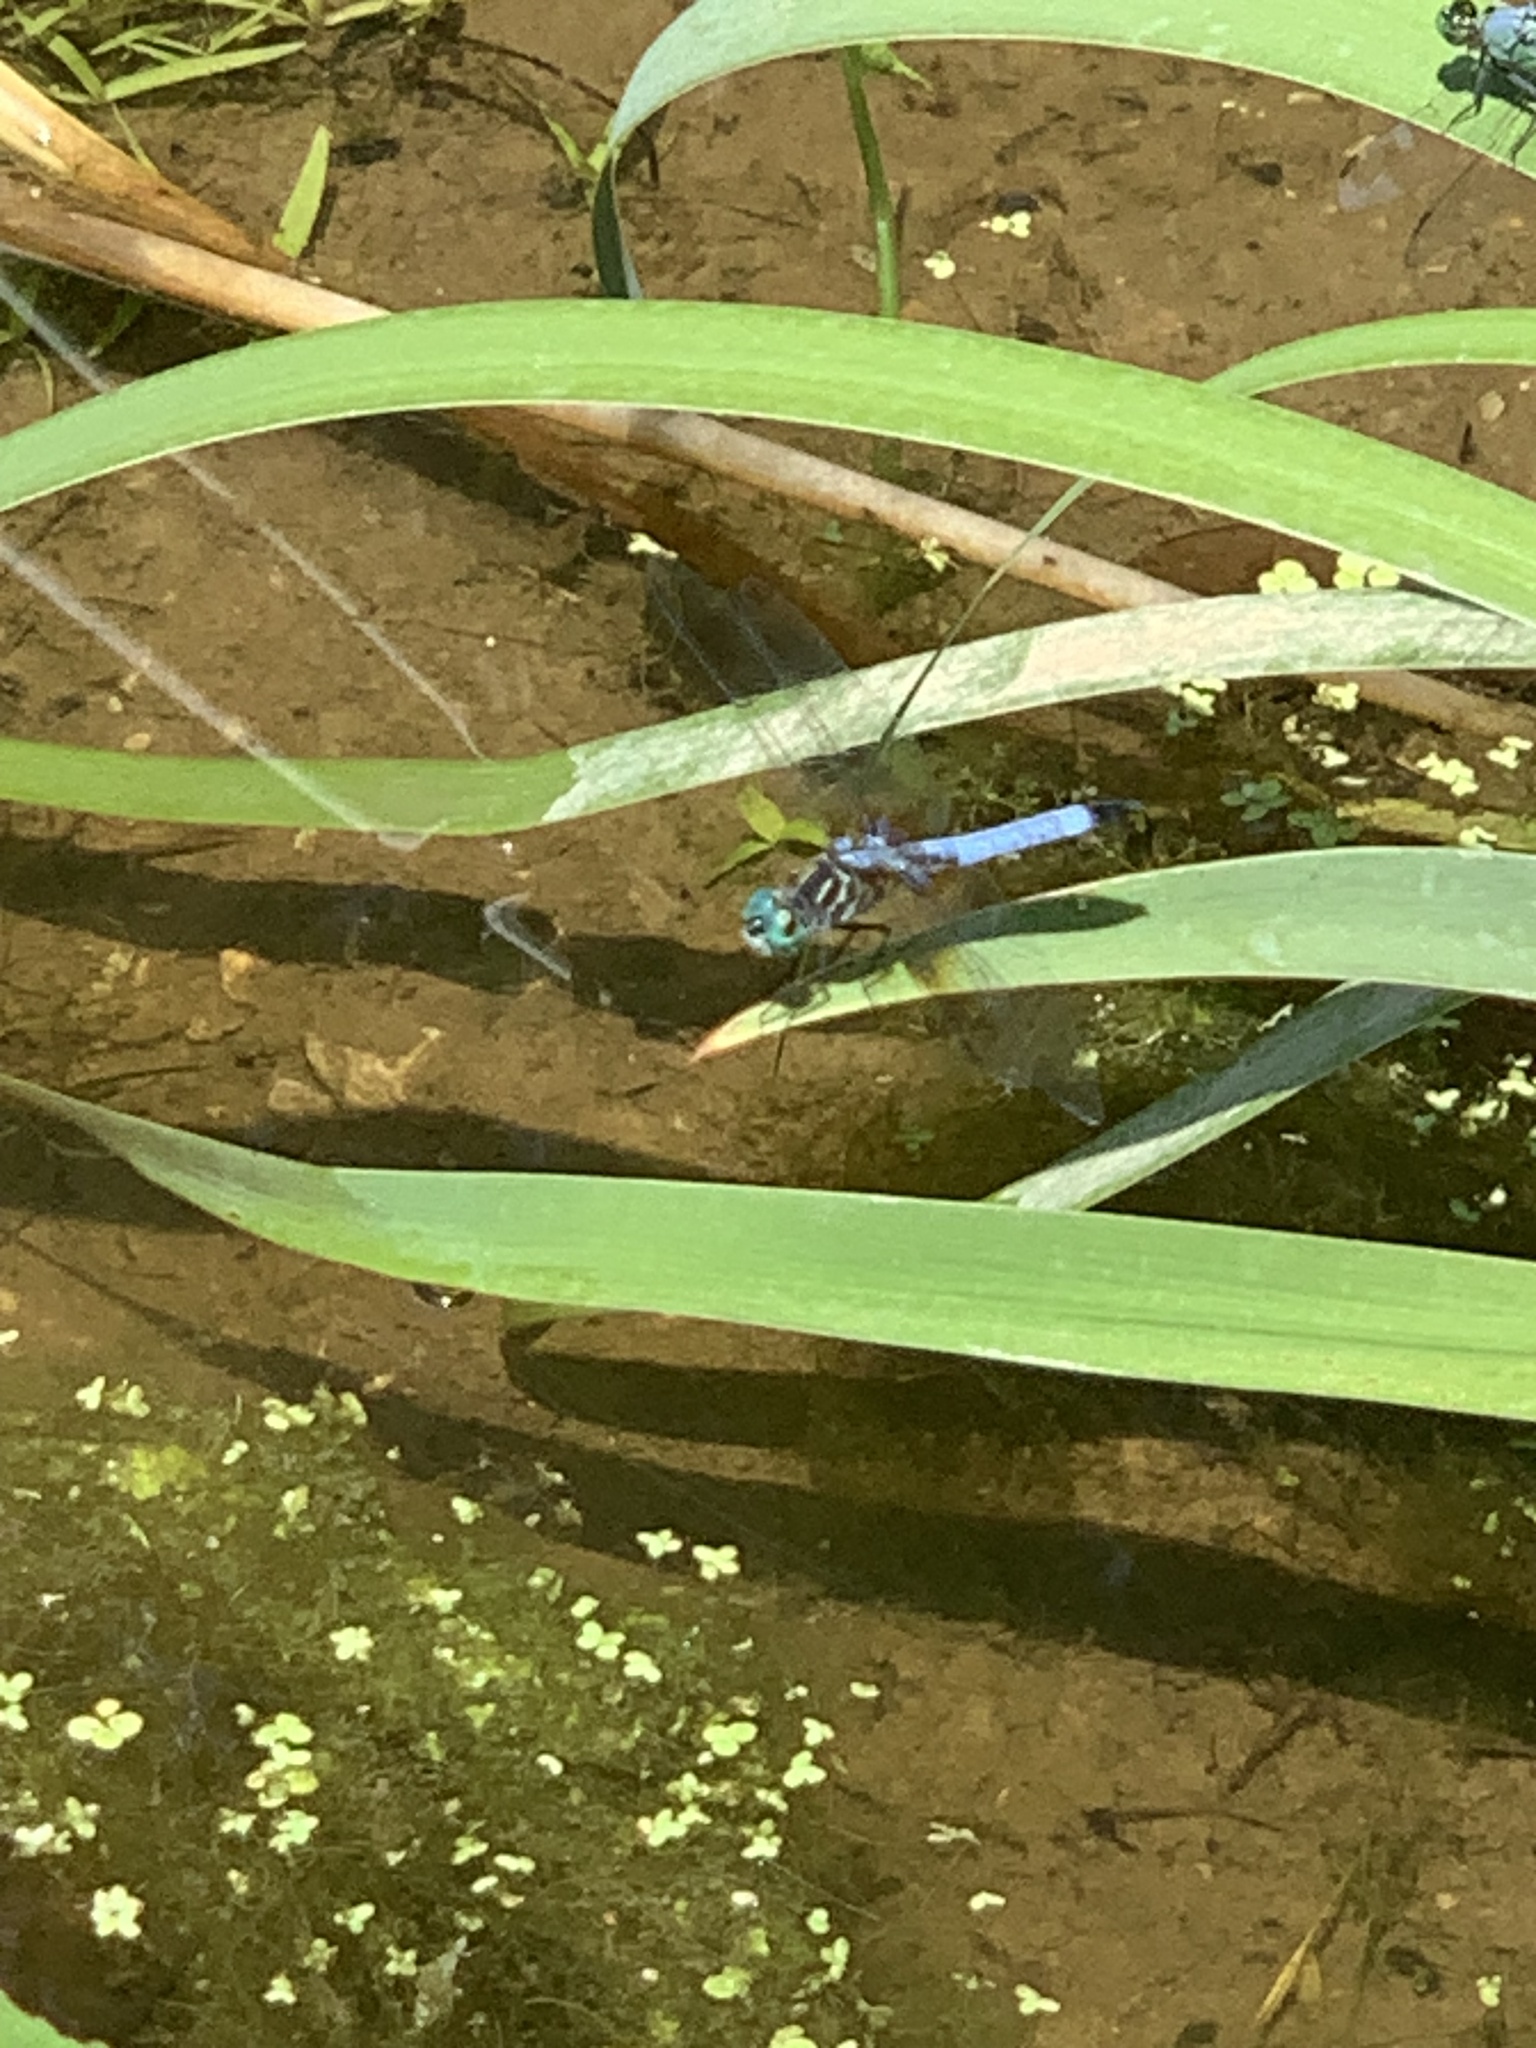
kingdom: Animalia
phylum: Arthropoda
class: Insecta
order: Odonata
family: Libellulidae
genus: Pachydiplax
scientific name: Pachydiplax longipennis
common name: Blue dasher
